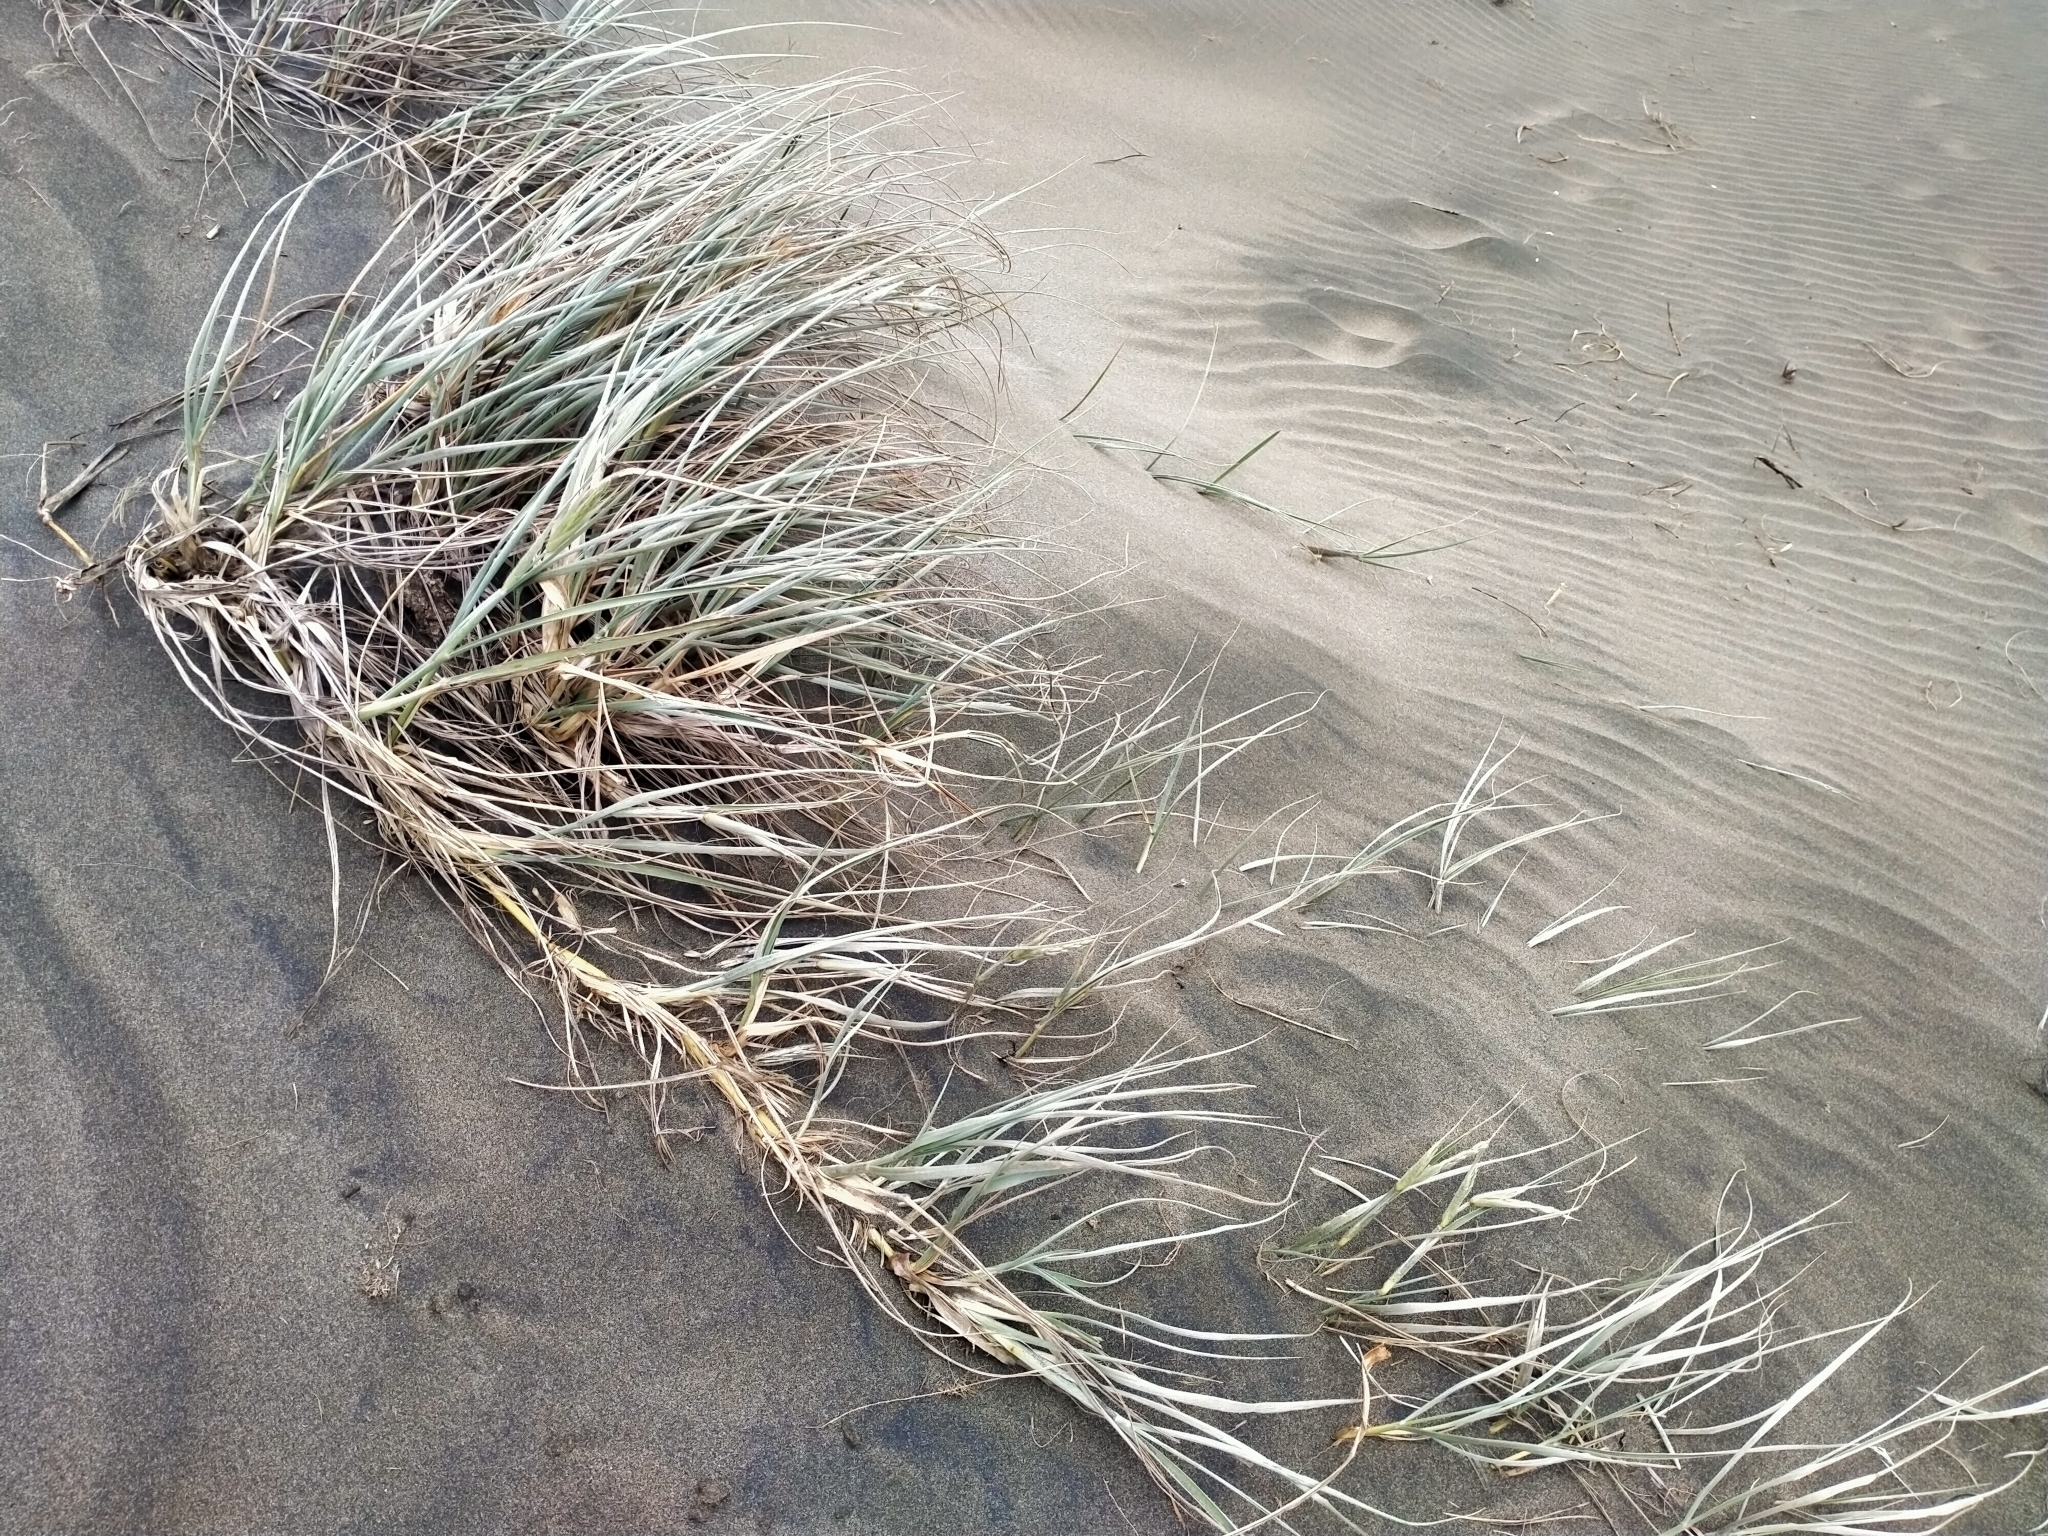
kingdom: Plantae
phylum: Tracheophyta
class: Liliopsida
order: Poales
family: Poaceae
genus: Spinifex
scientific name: Spinifex sericeus
